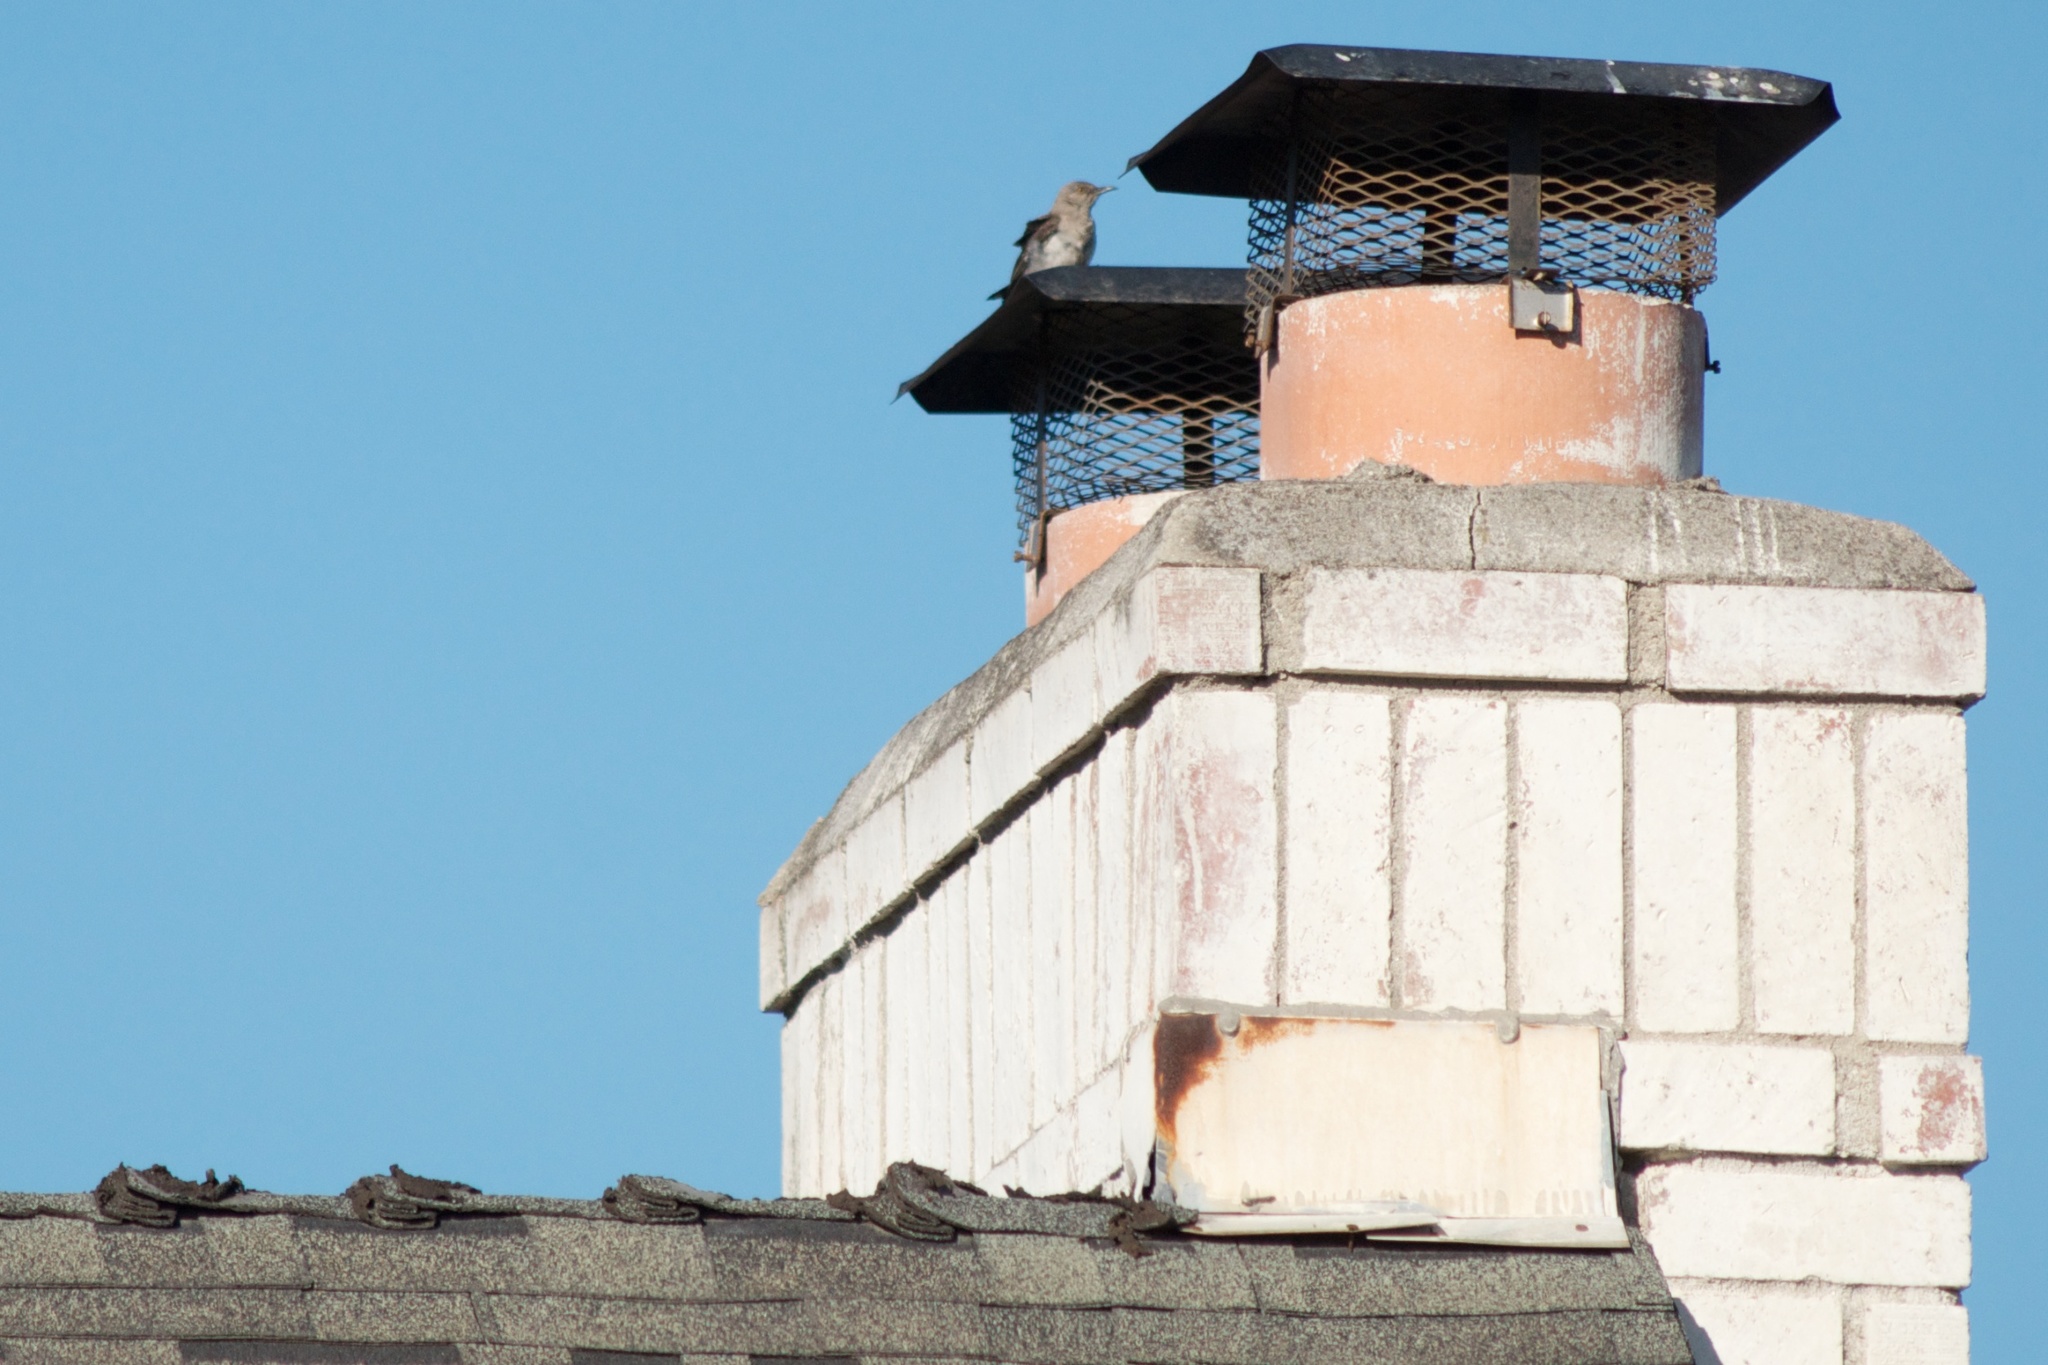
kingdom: Animalia
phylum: Chordata
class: Aves
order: Passeriformes
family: Mimidae
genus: Mimus
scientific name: Mimus polyglottos
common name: Northern mockingbird
